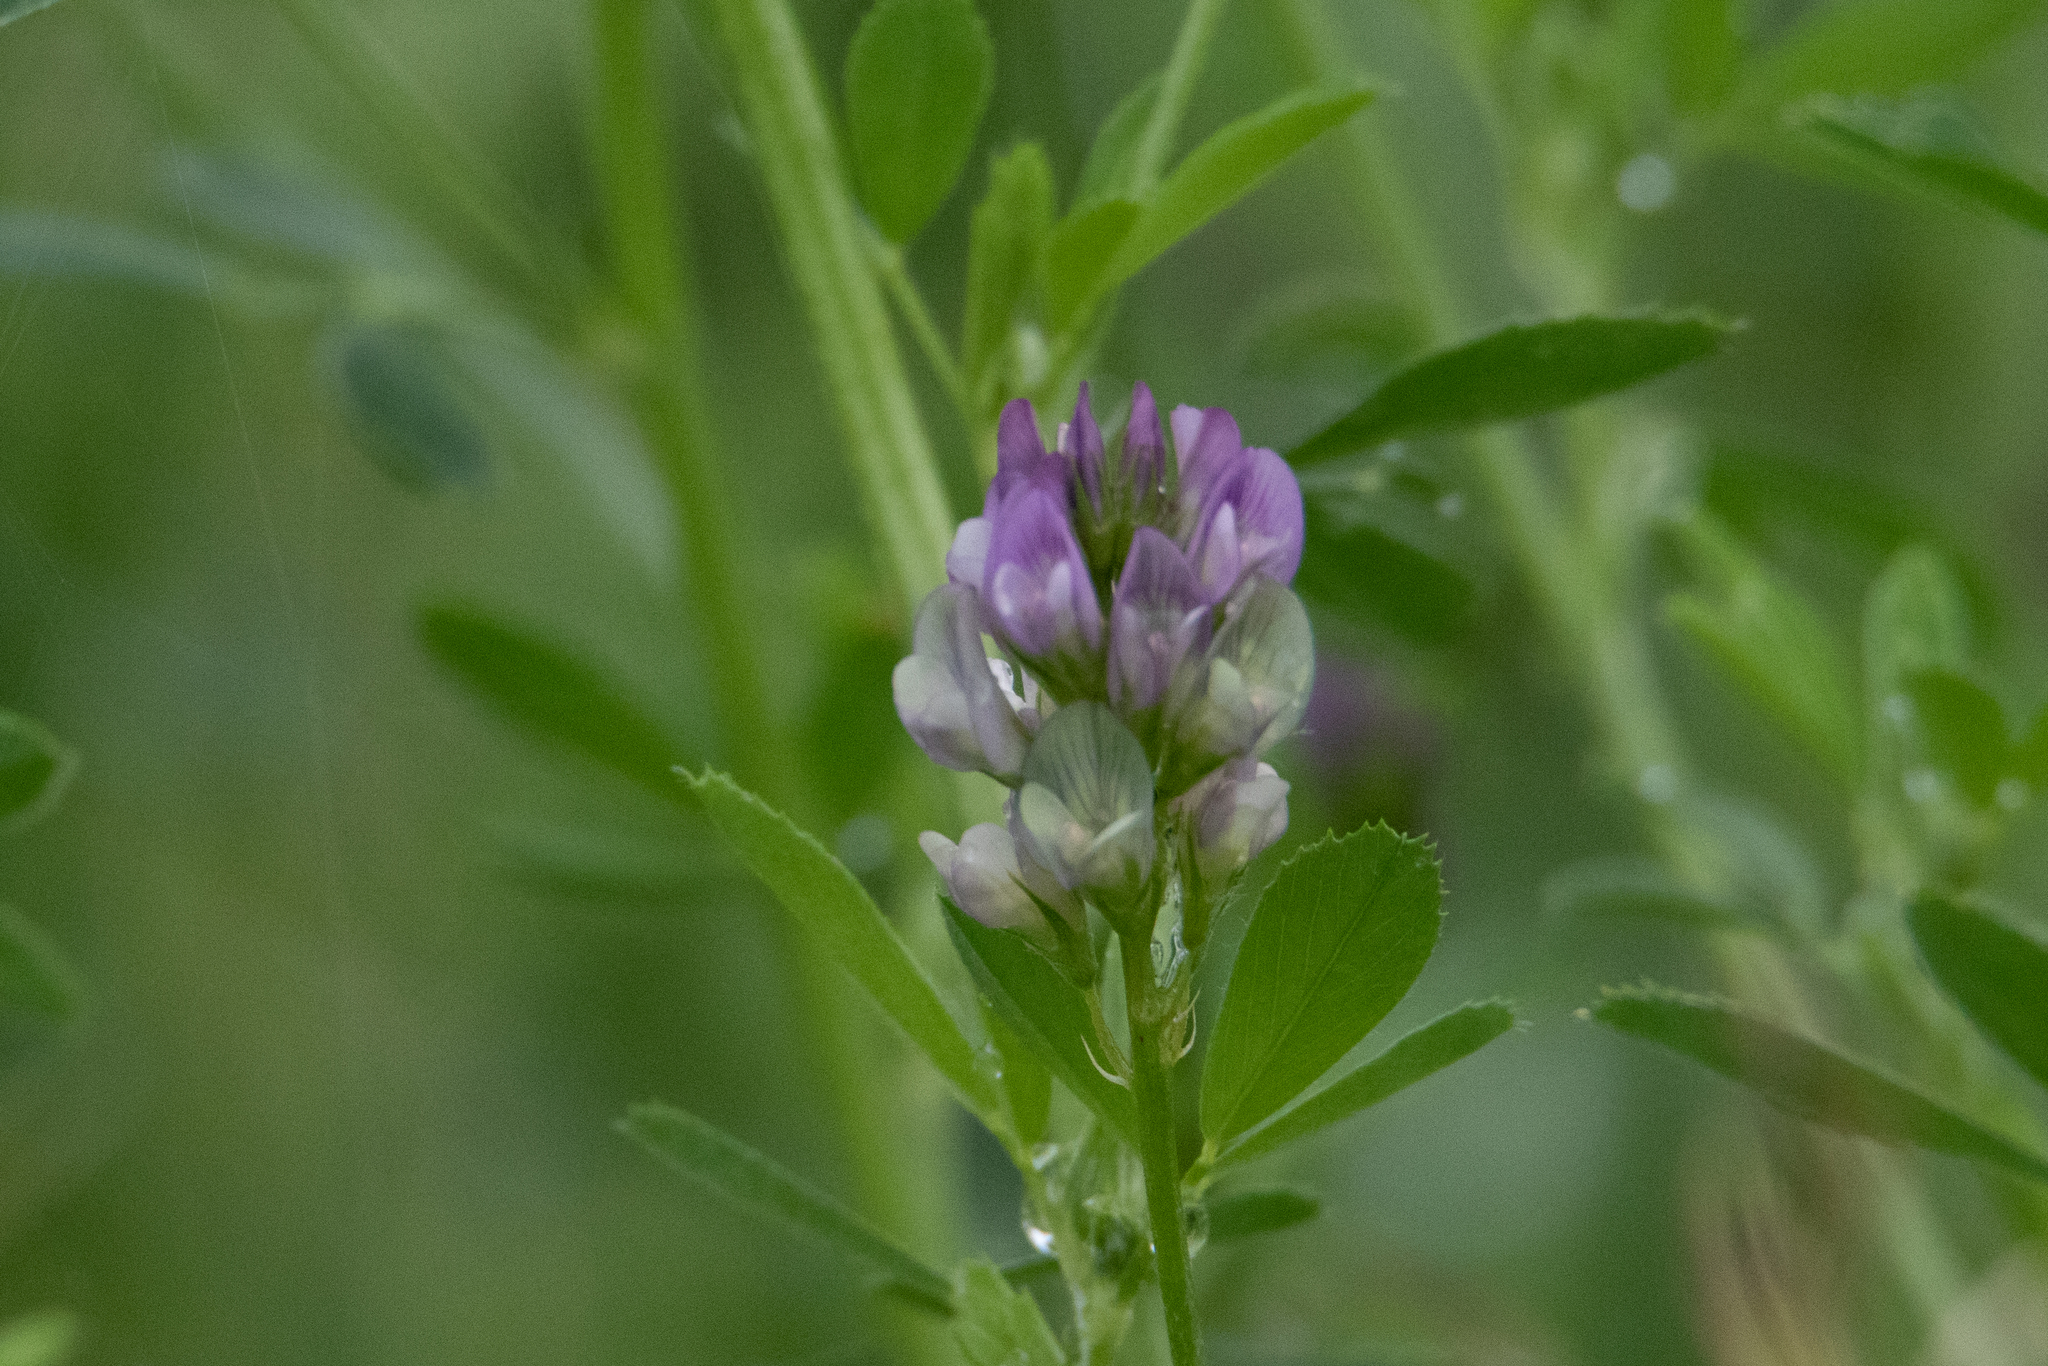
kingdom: Plantae
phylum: Tracheophyta
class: Magnoliopsida
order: Fabales
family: Fabaceae
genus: Medicago
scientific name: Medicago varia
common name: Sand lucerne
